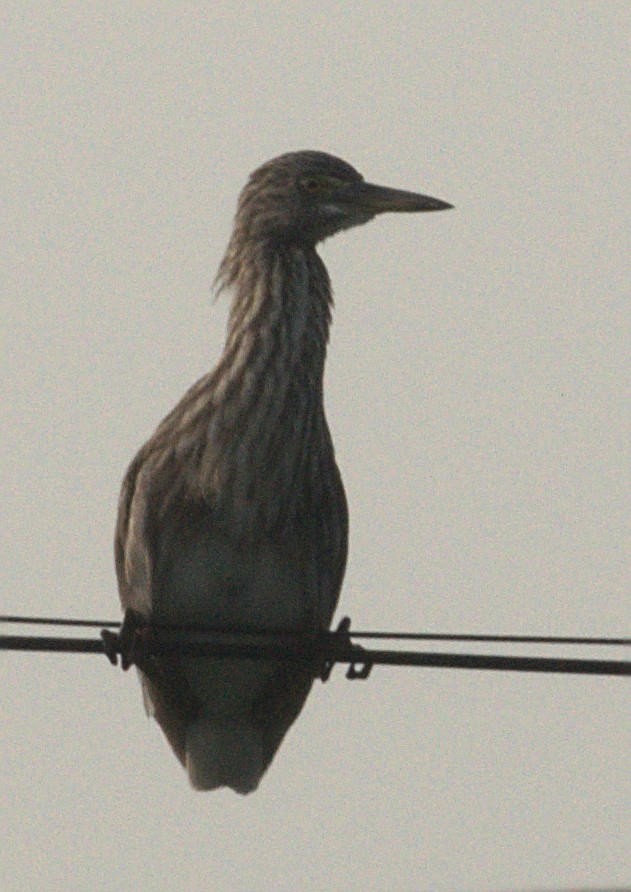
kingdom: Animalia
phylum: Chordata
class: Aves
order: Pelecaniformes
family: Ardeidae
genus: Ardeola
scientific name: Ardeola grayii
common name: Indian pond heron
